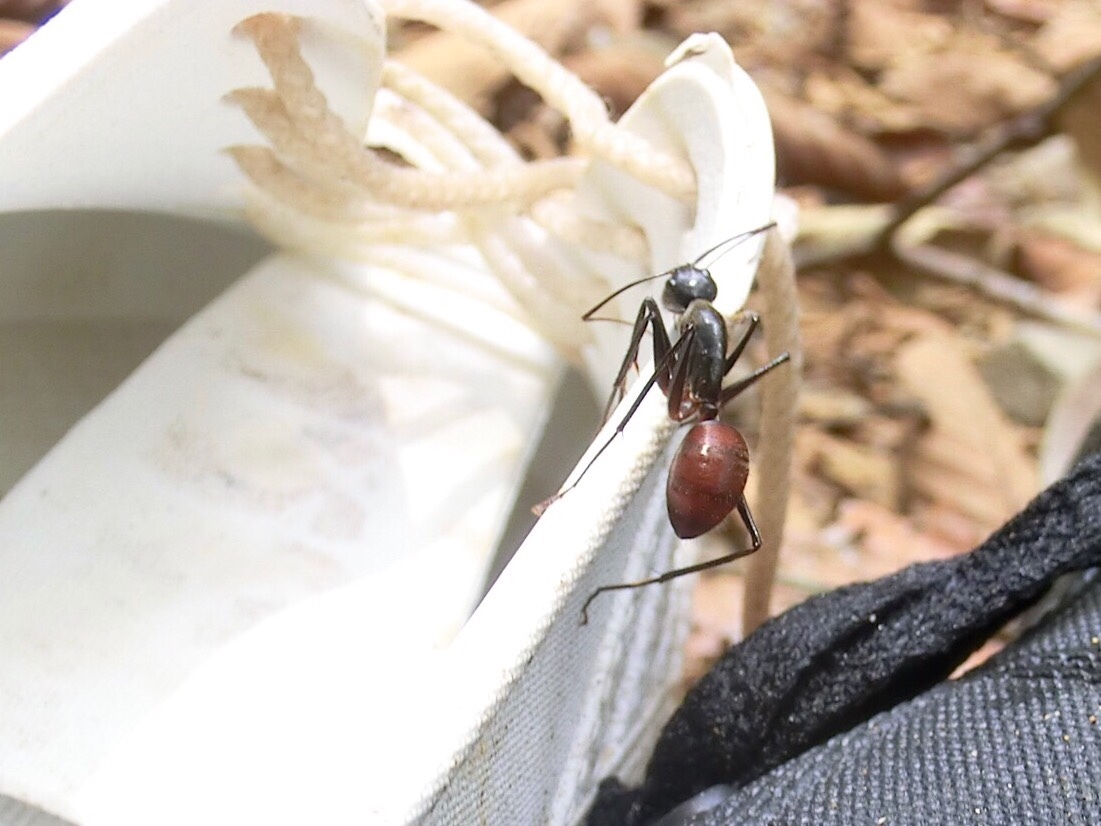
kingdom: Animalia
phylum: Arthropoda
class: Insecta
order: Hymenoptera
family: Formicidae
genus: Dinomyrmex
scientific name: Dinomyrmex
